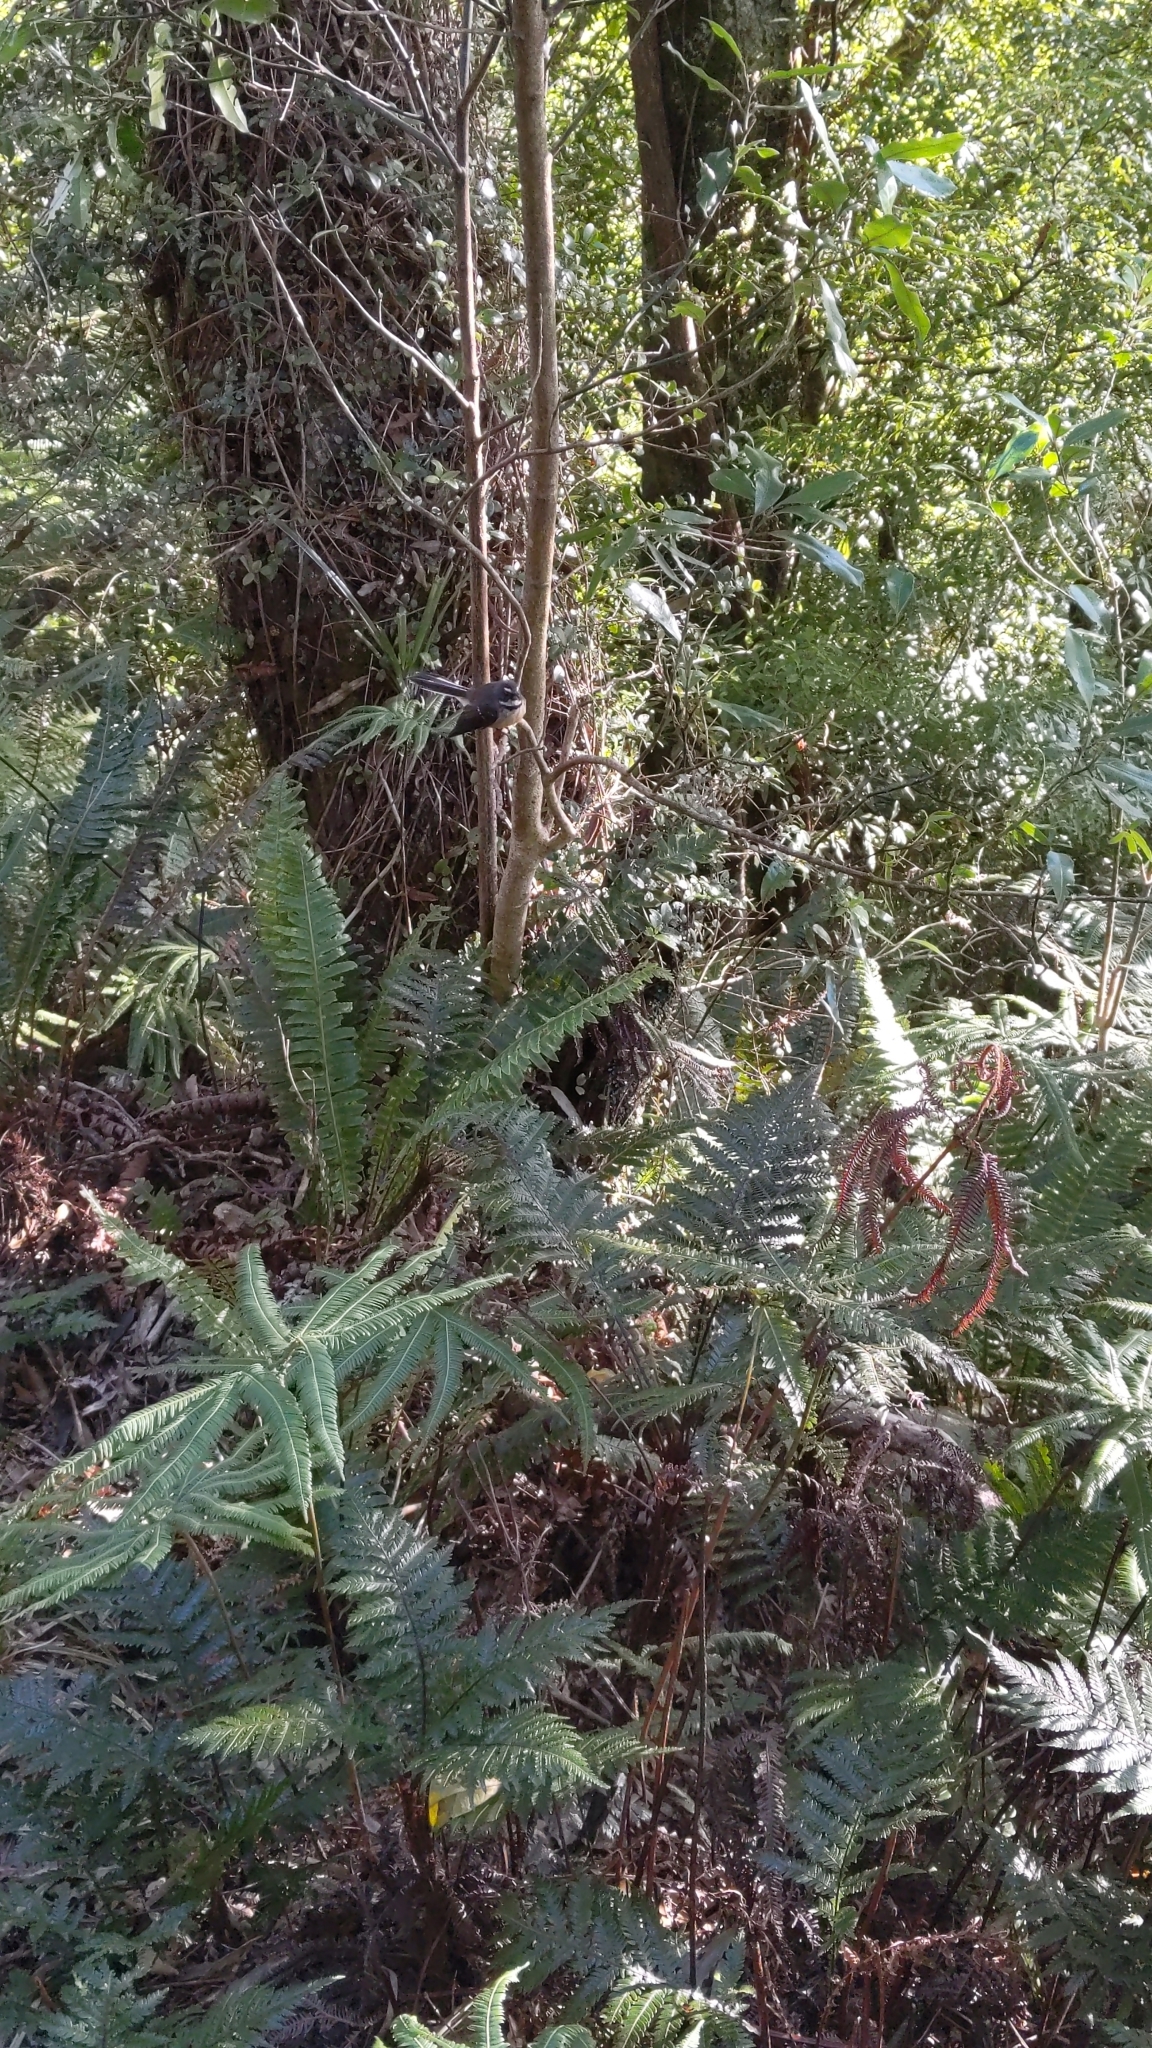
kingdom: Animalia
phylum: Chordata
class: Aves
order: Passeriformes
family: Rhipiduridae
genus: Rhipidura
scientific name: Rhipidura fuliginosa
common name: New zealand fantail
